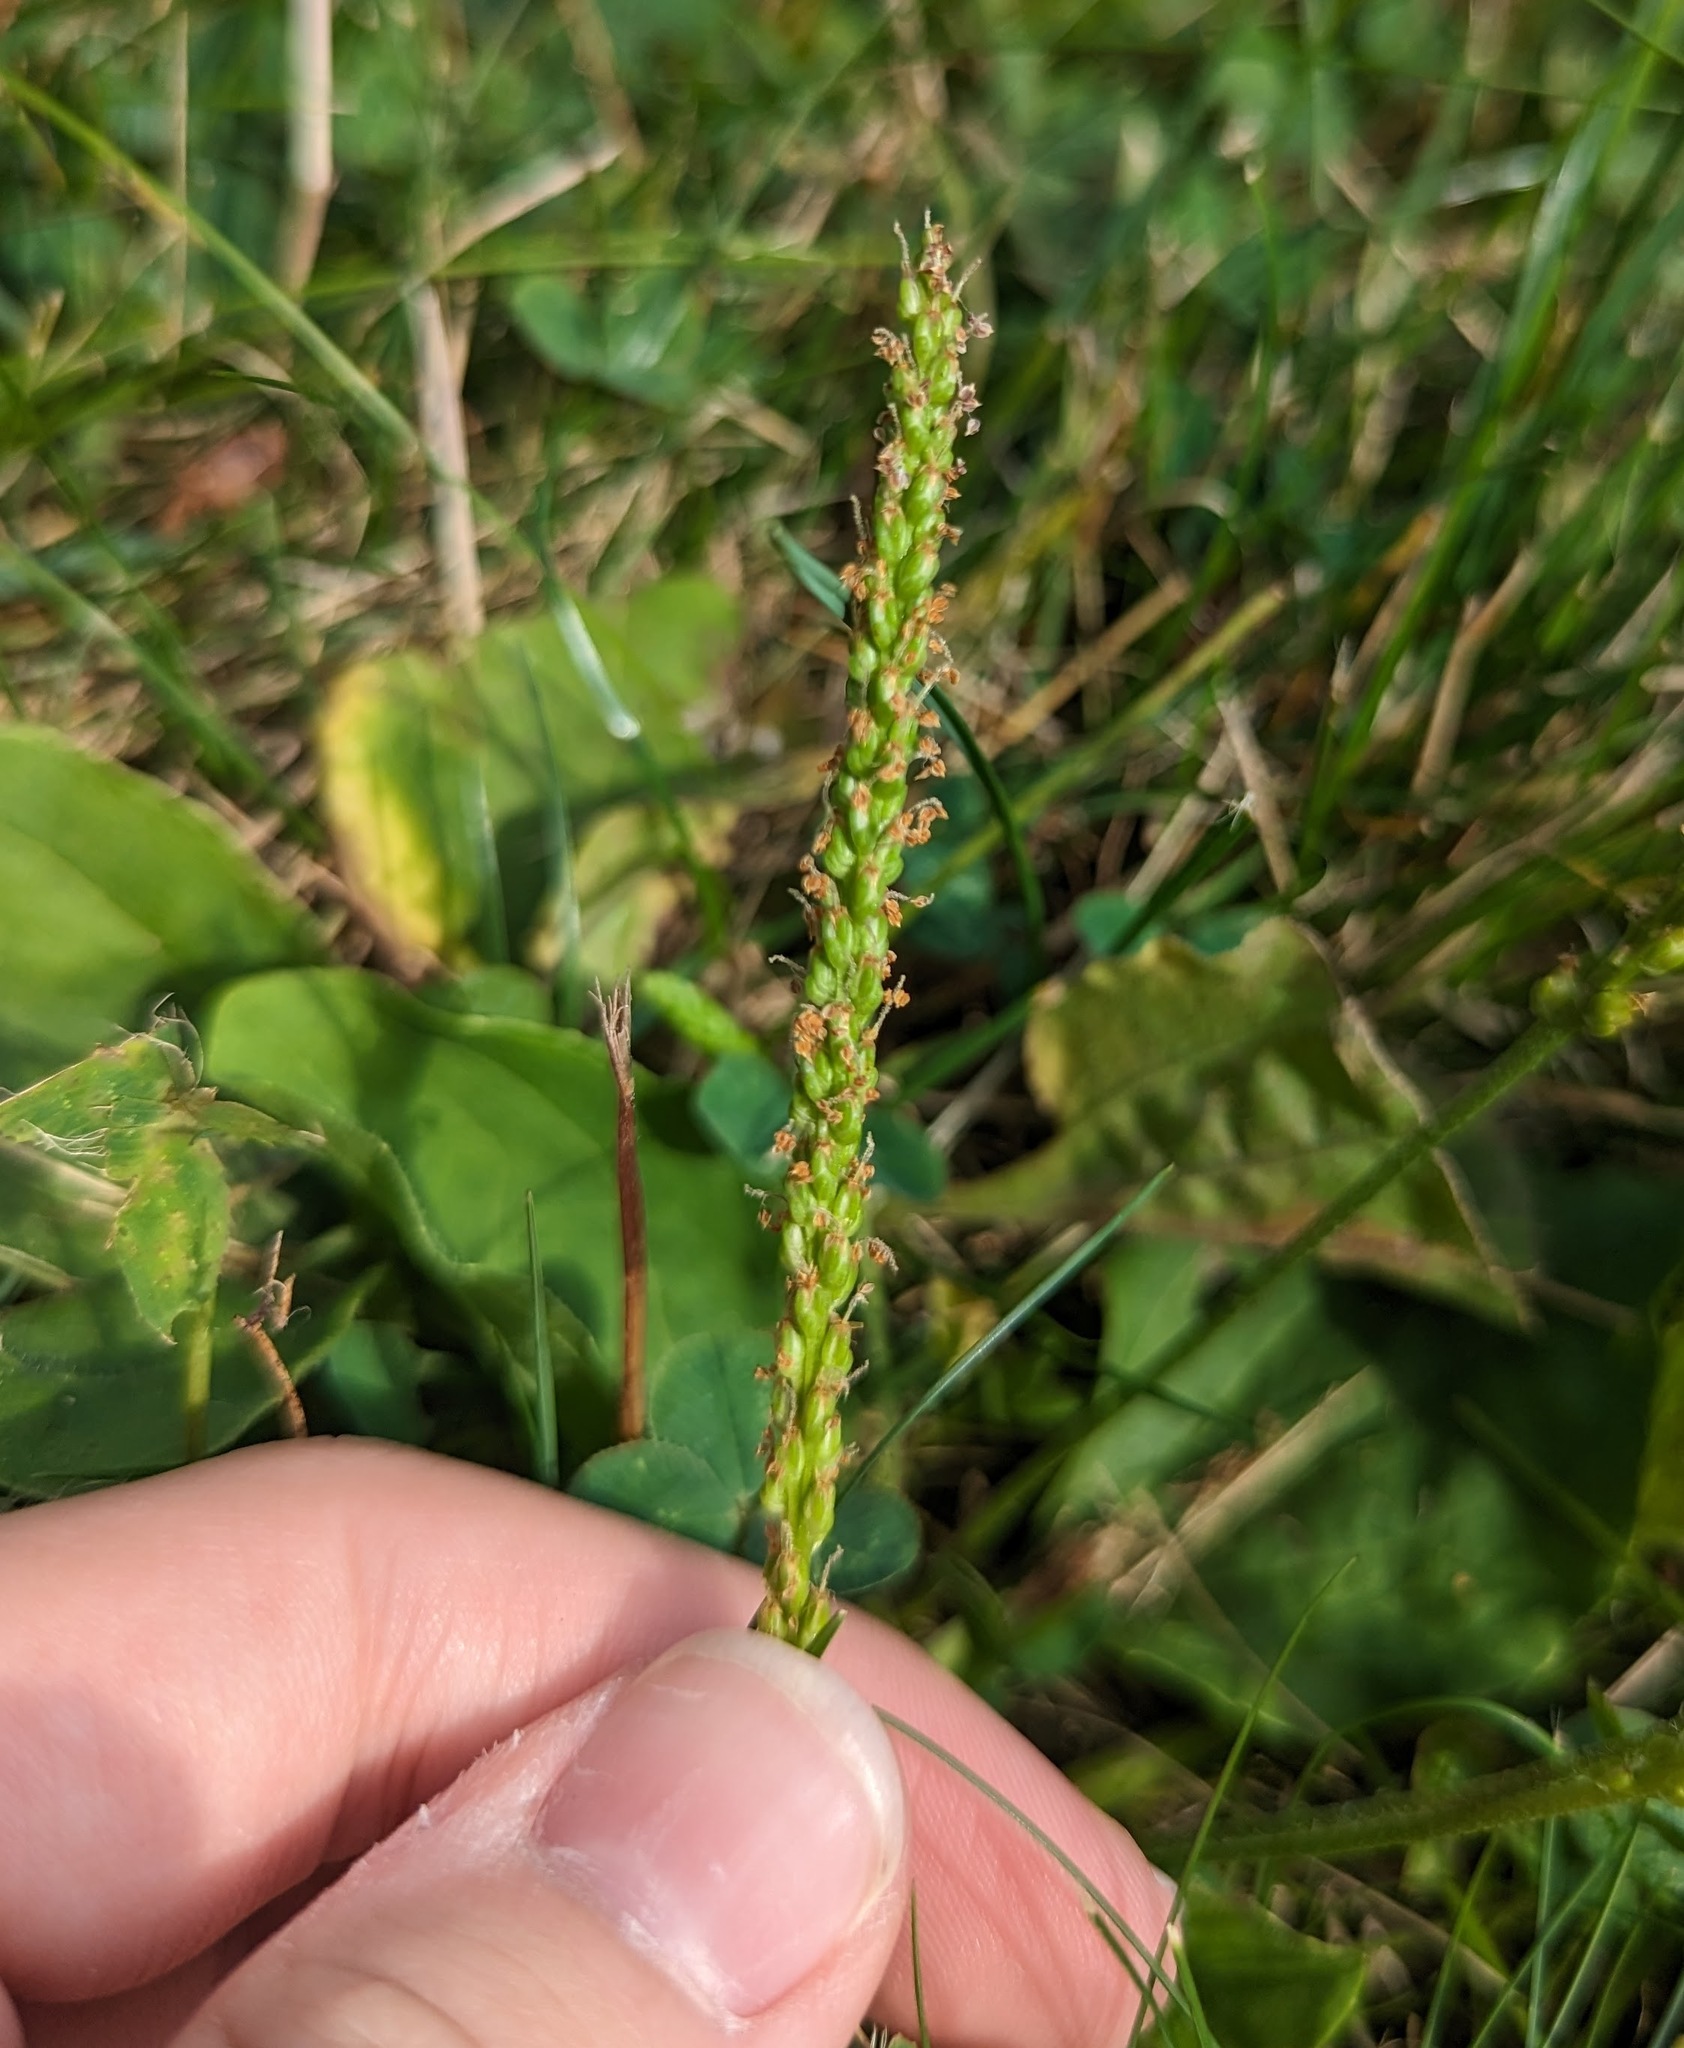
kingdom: Plantae
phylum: Tracheophyta
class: Magnoliopsida
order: Lamiales
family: Plantaginaceae
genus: Plantago
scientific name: Plantago major
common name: Common plantain
